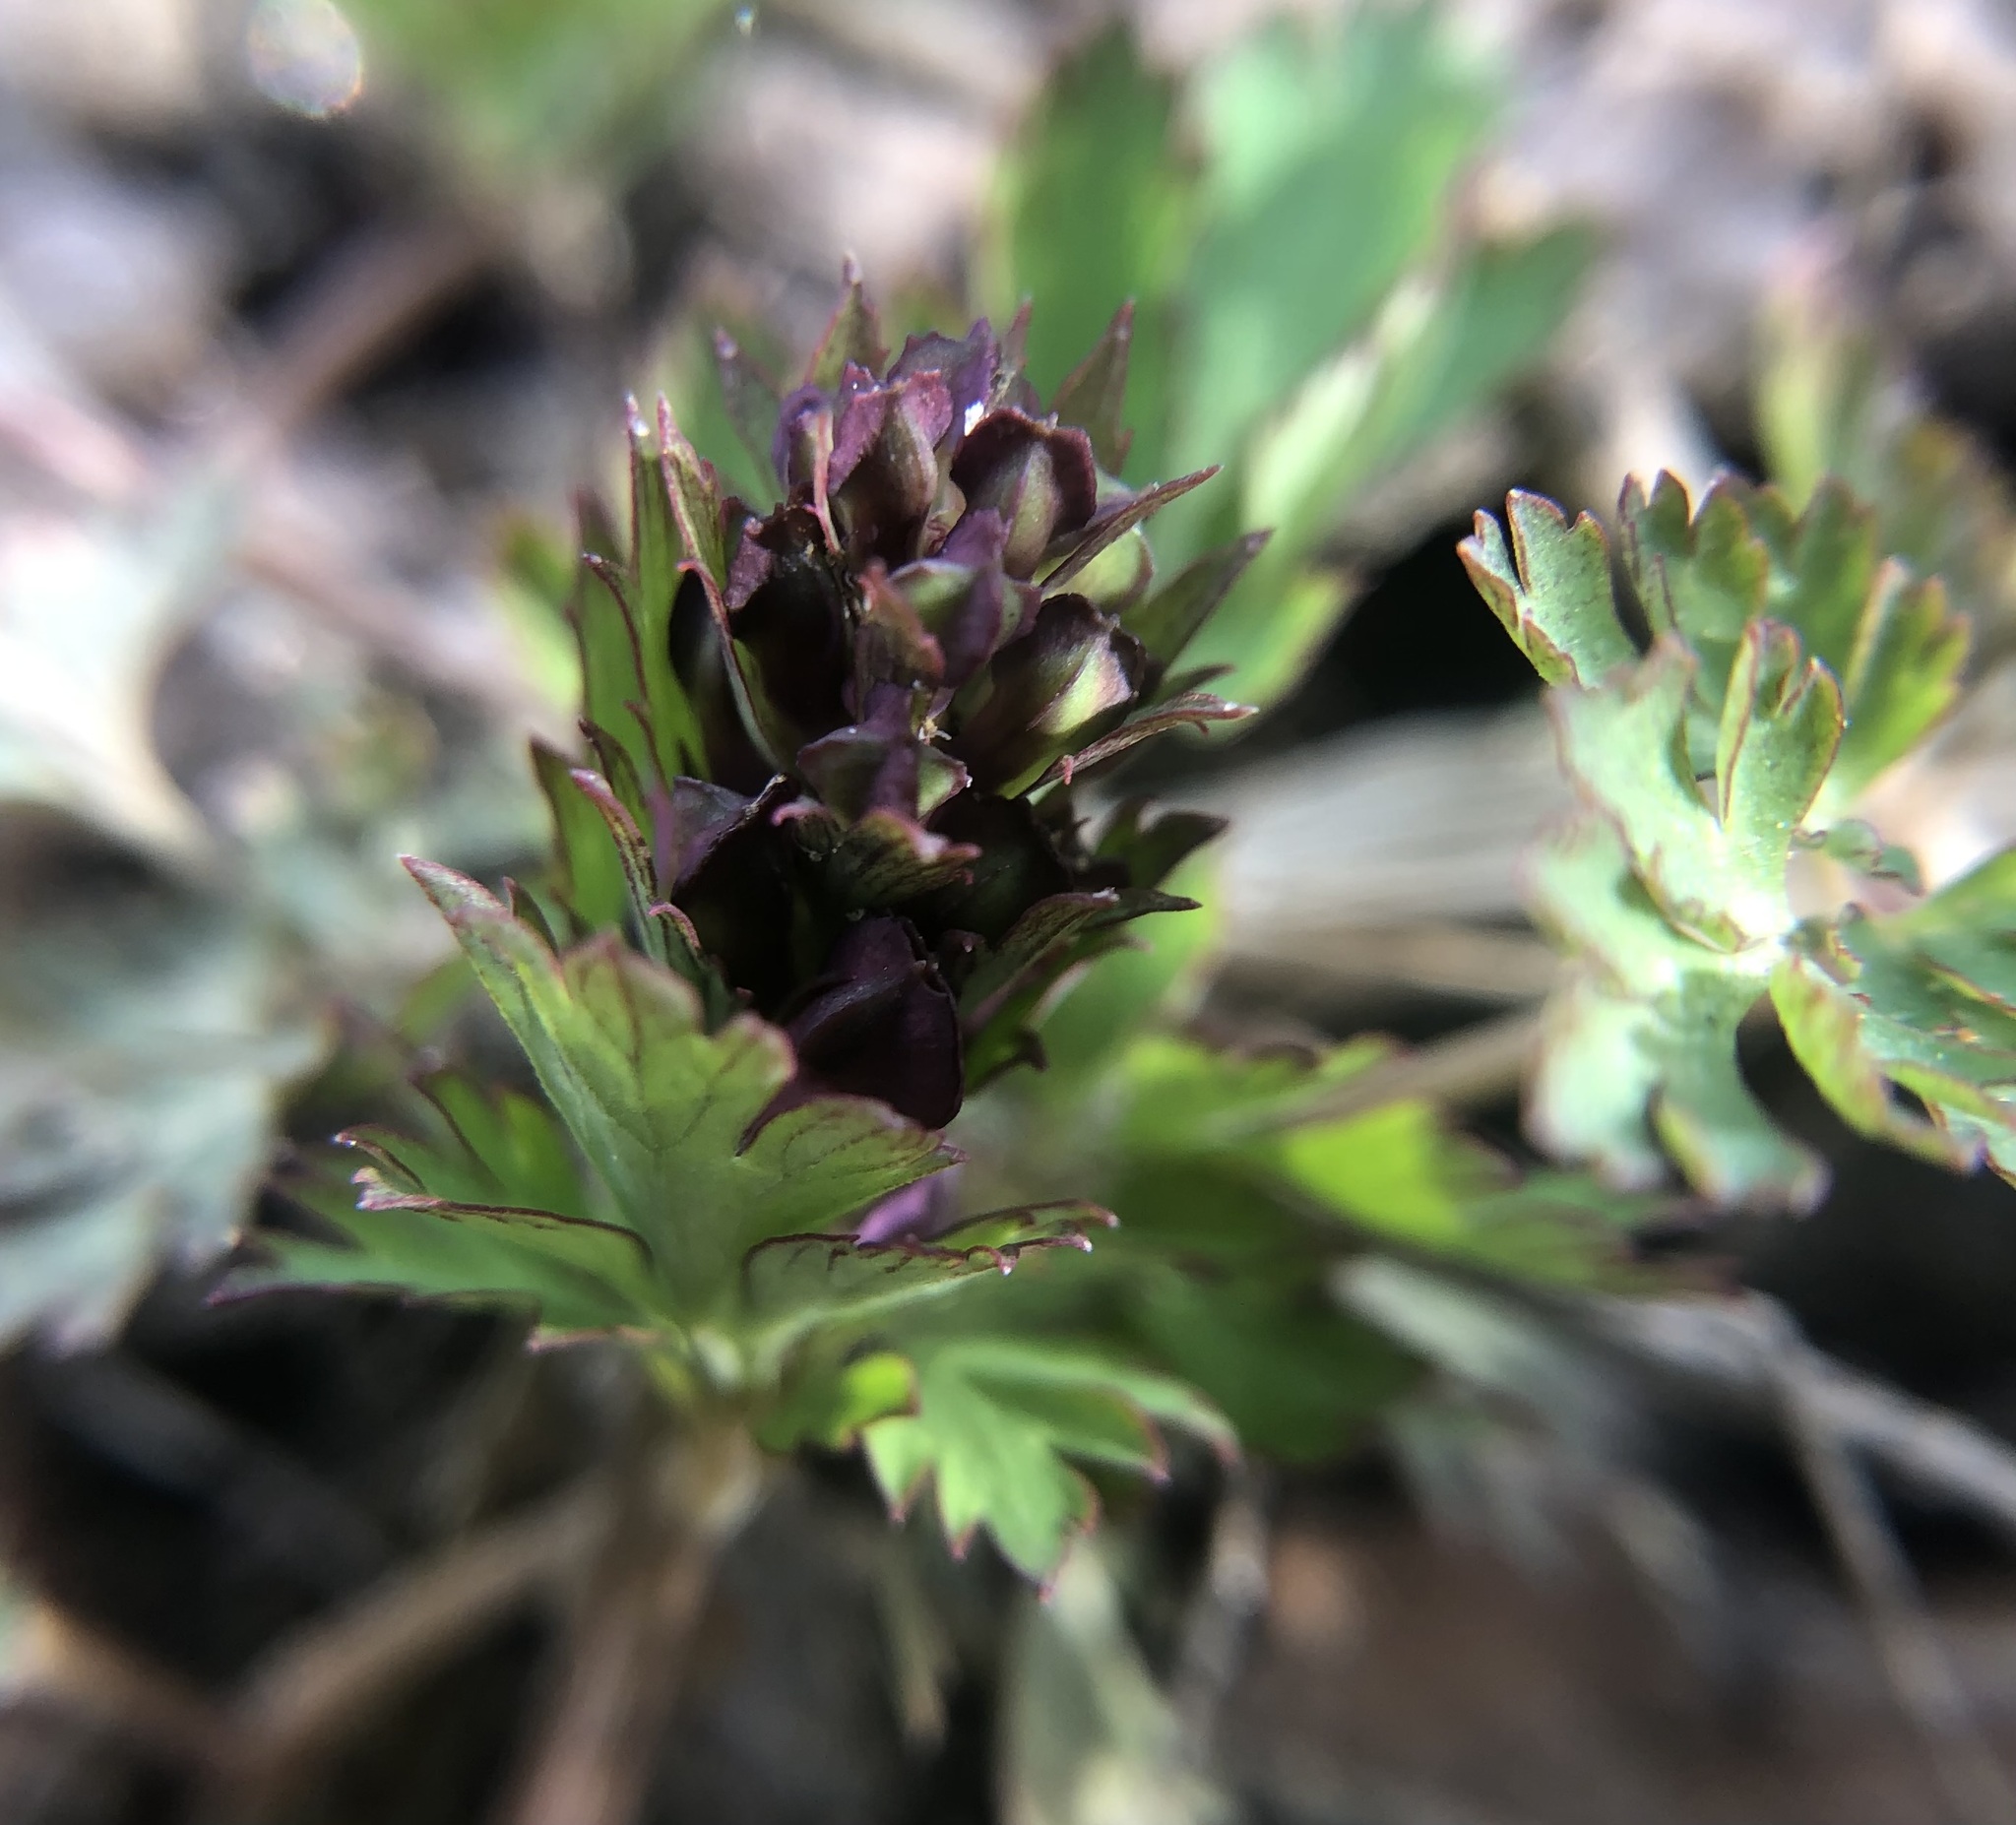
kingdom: Plantae
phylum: Tracheophyta
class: Magnoliopsida
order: Ranunculales
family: Papaveraceae
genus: Corydalis
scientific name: Corydalis incisa
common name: Incised fumewort
